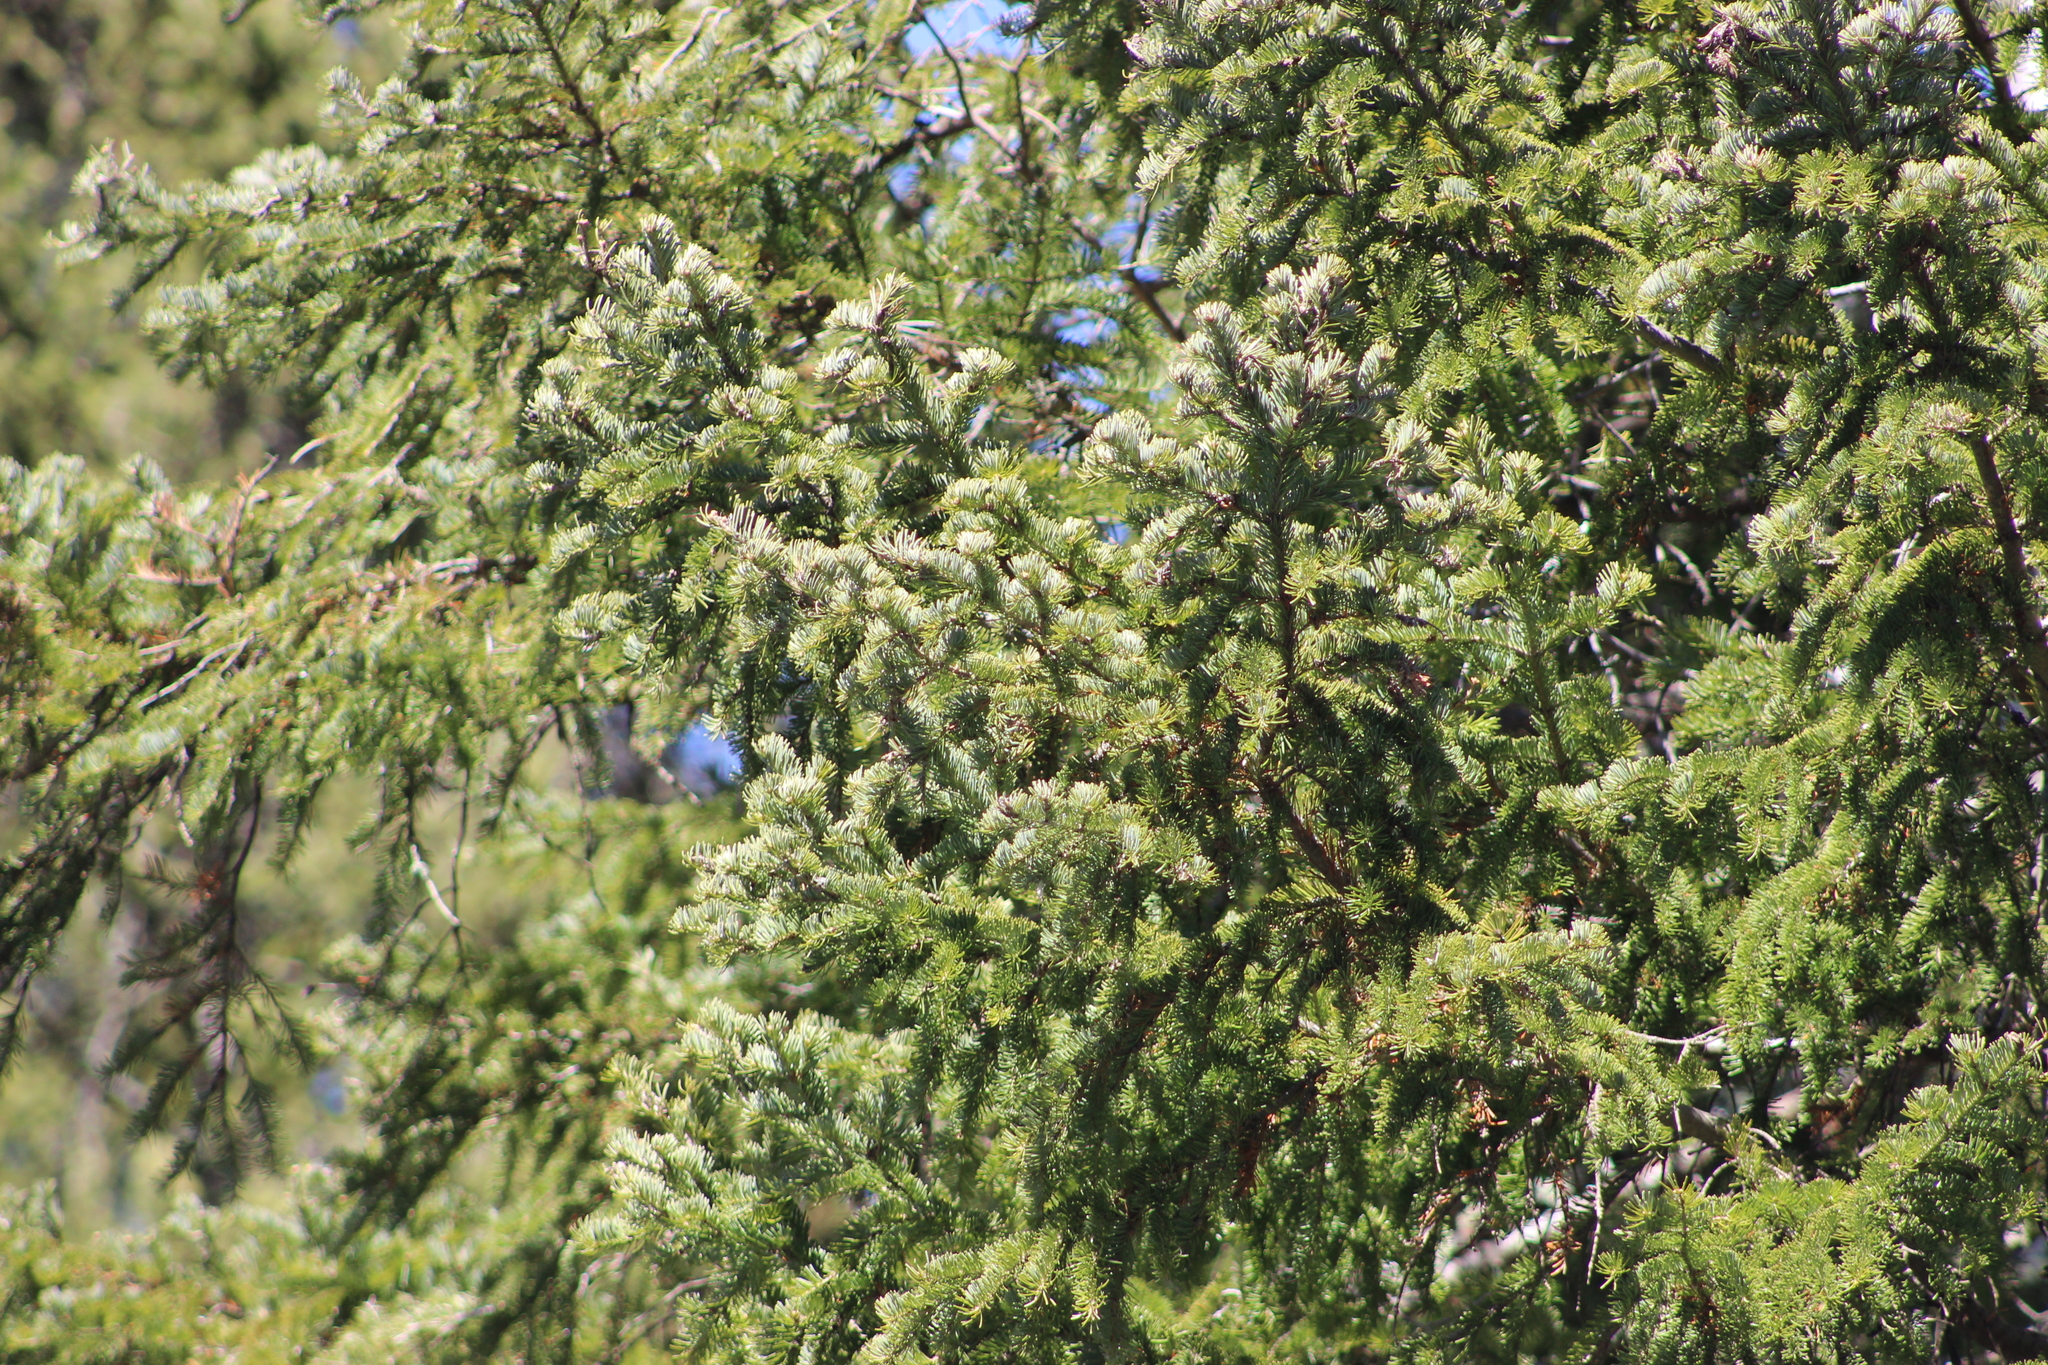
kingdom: Plantae
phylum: Tracheophyta
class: Pinopsida
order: Pinales
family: Pinaceae
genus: Picea
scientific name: Picea obovata
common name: Siberian spruce
